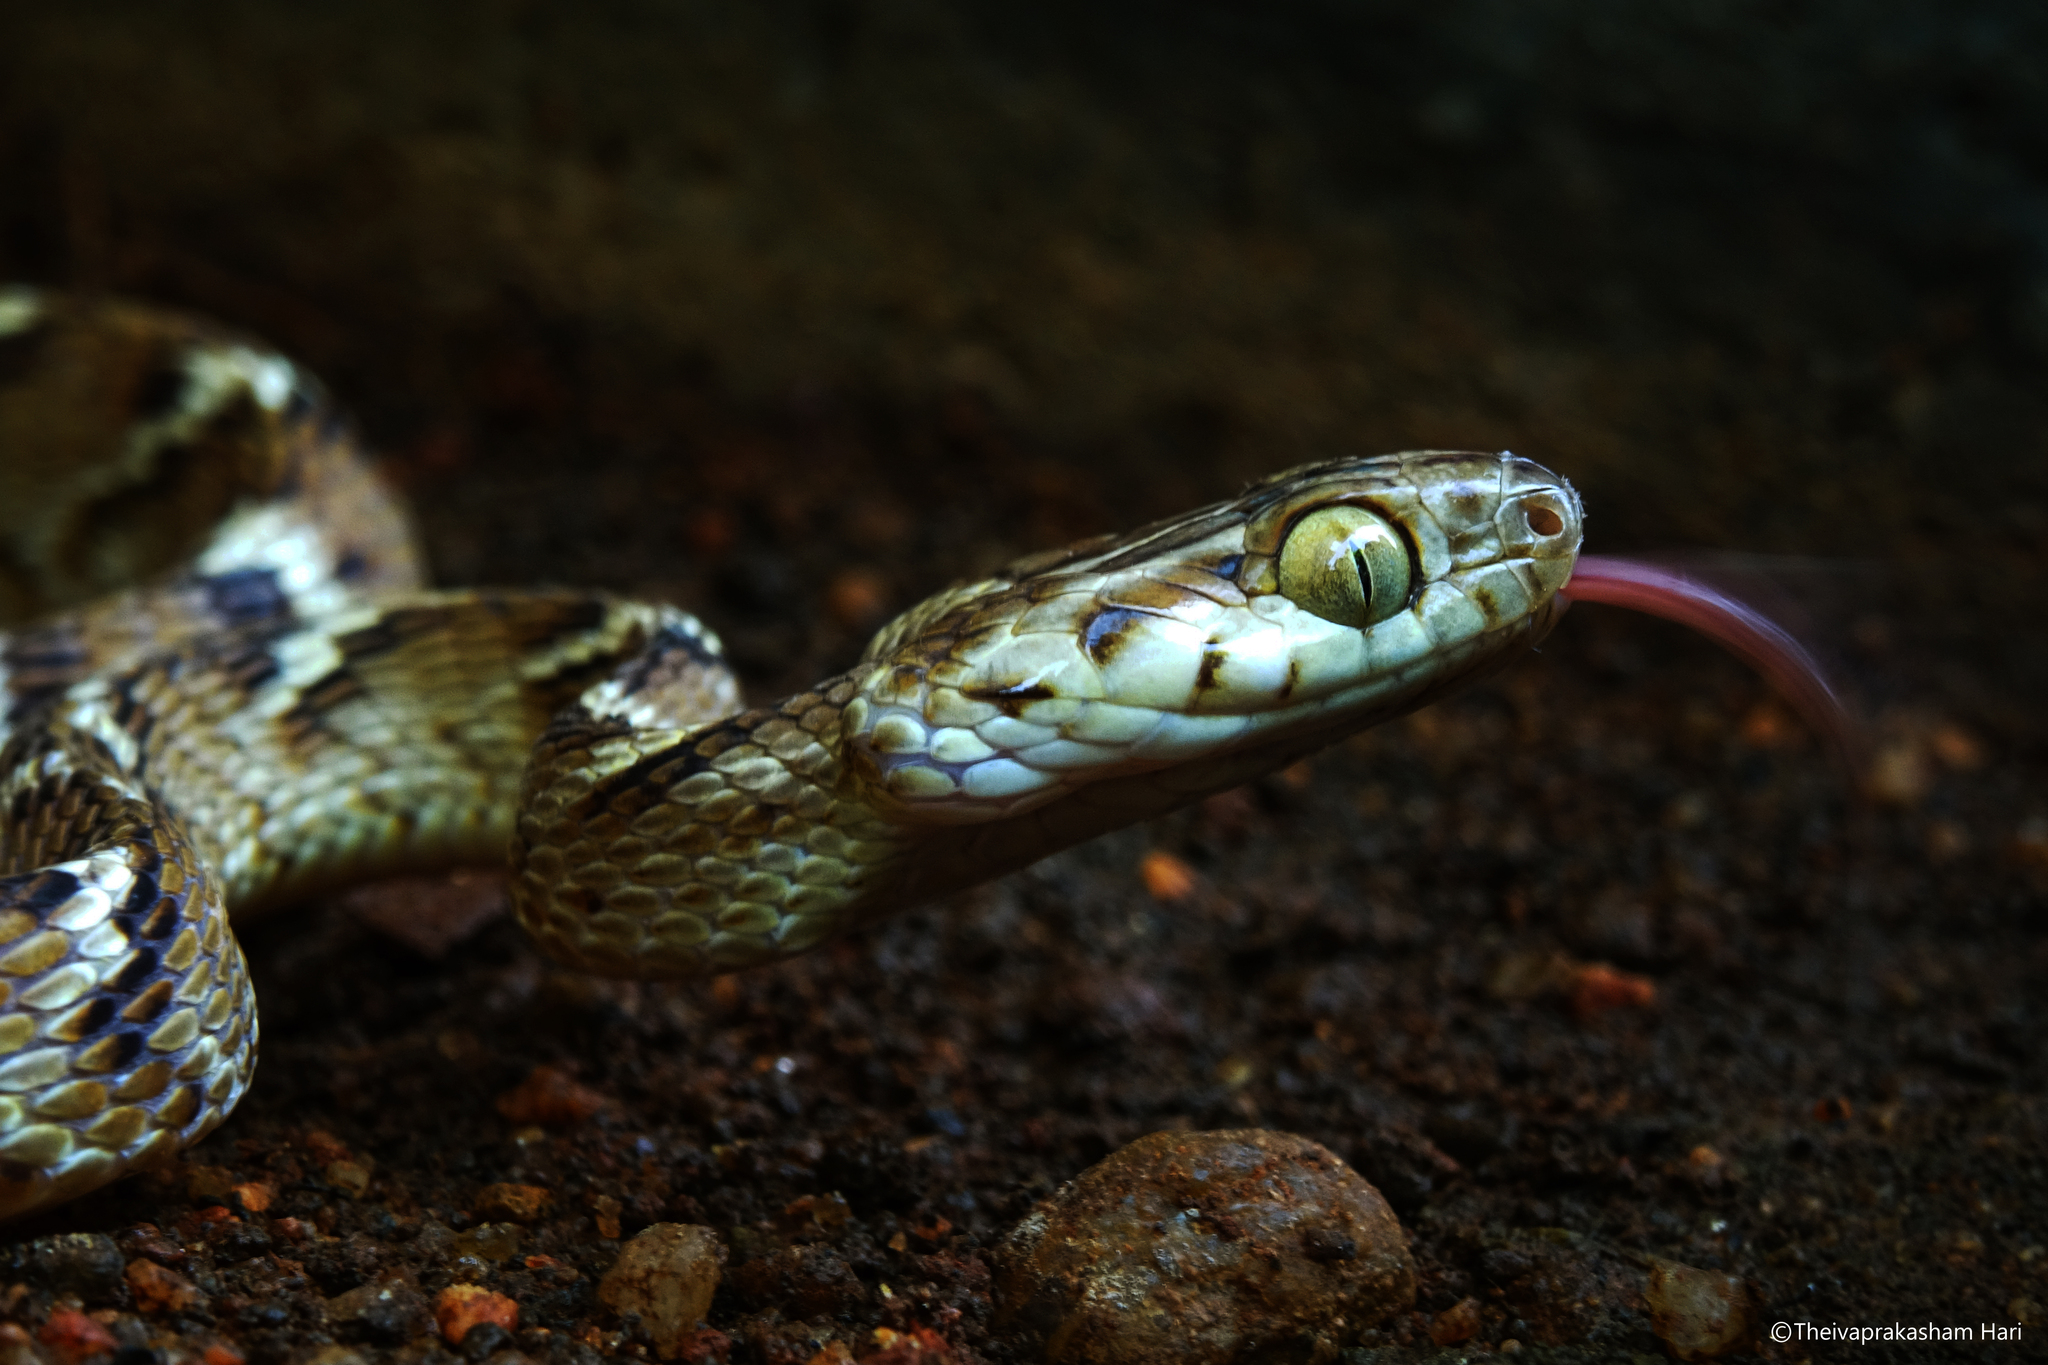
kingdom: Animalia
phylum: Chordata
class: Squamata
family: Colubridae
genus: Boiga
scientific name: Boiga trigonata
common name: Common cat snake
